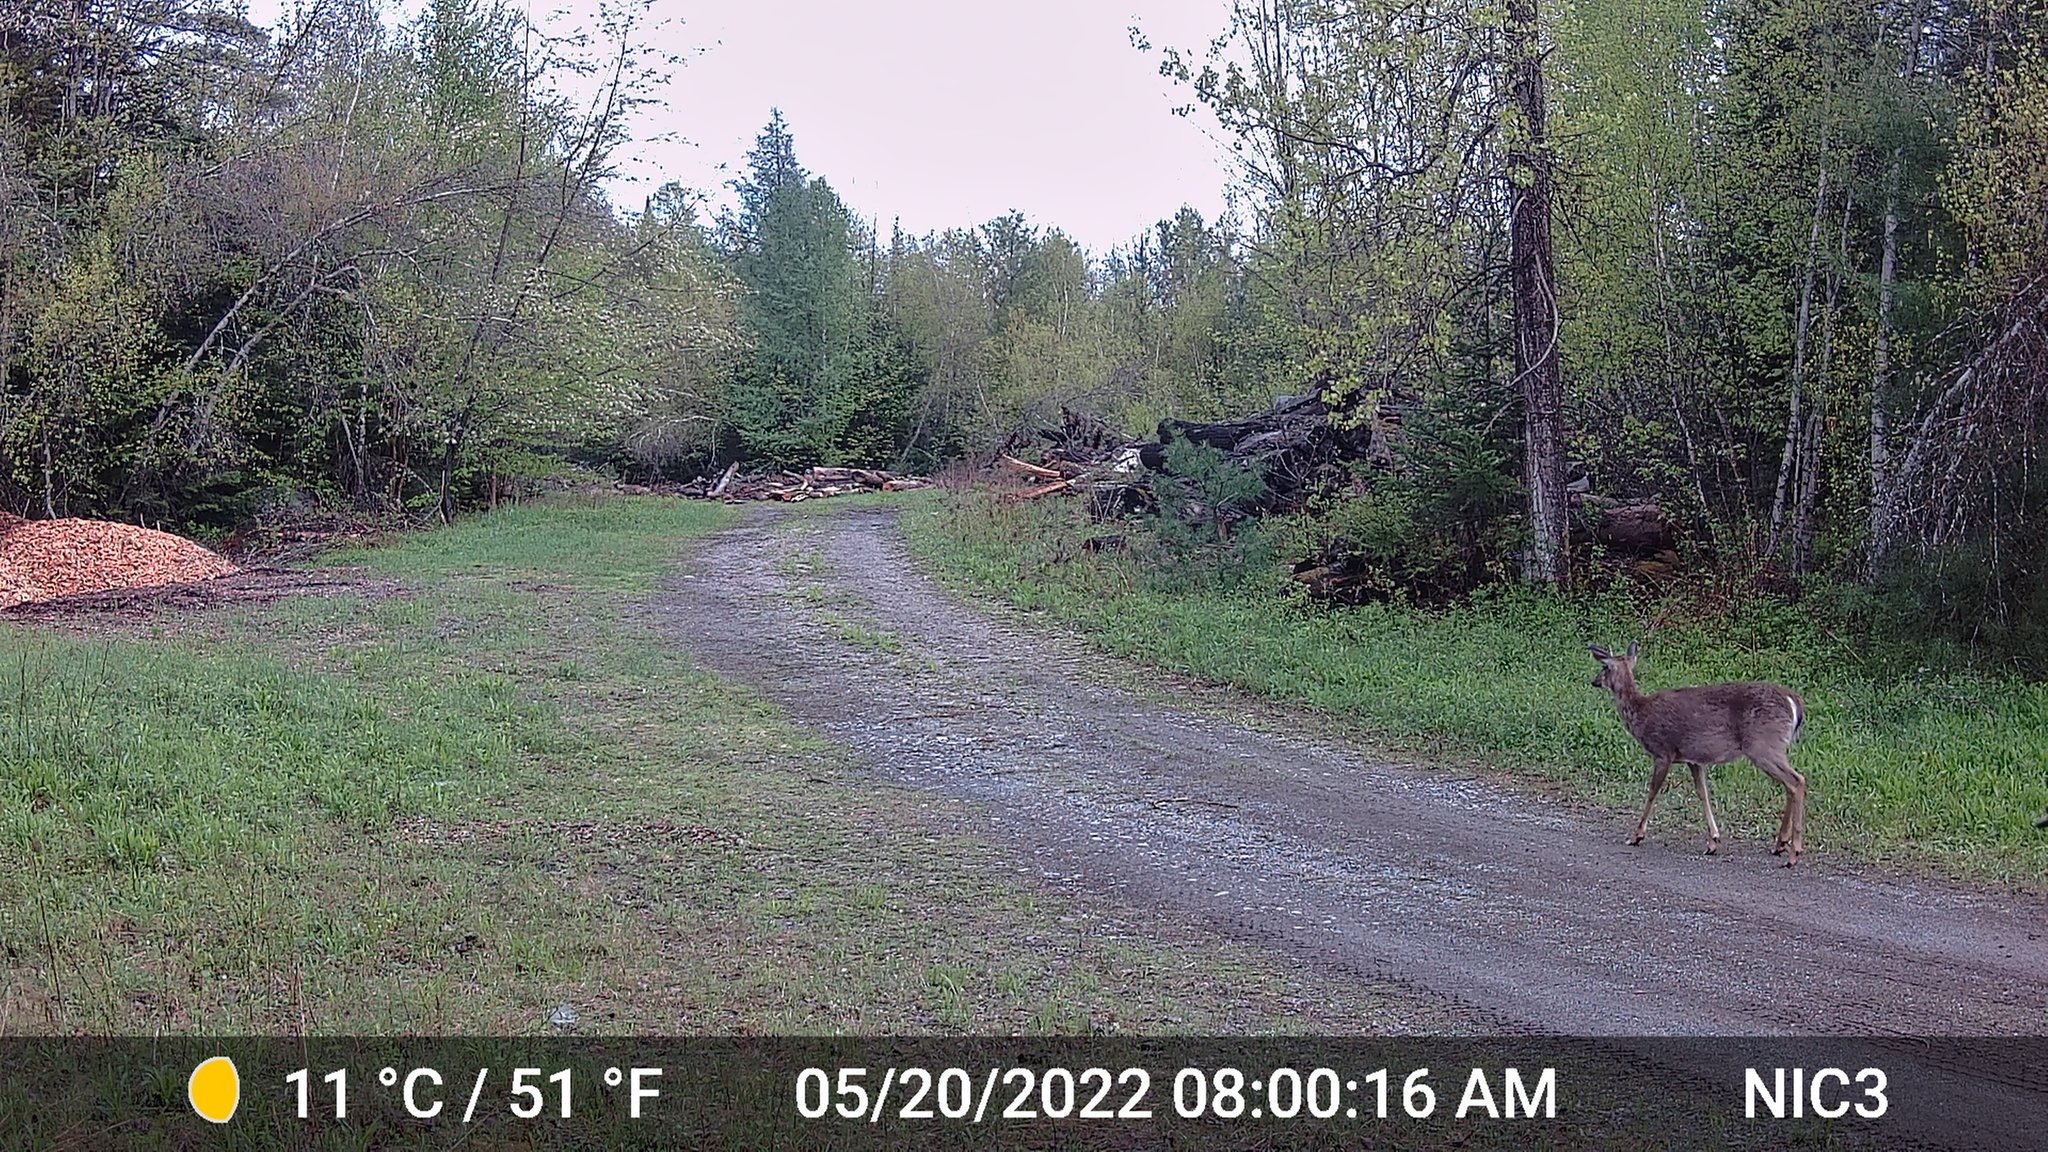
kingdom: Animalia
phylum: Chordata
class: Mammalia
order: Artiodactyla
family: Cervidae
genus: Odocoileus
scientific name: Odocoileus virginianus
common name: White-tailed deer
